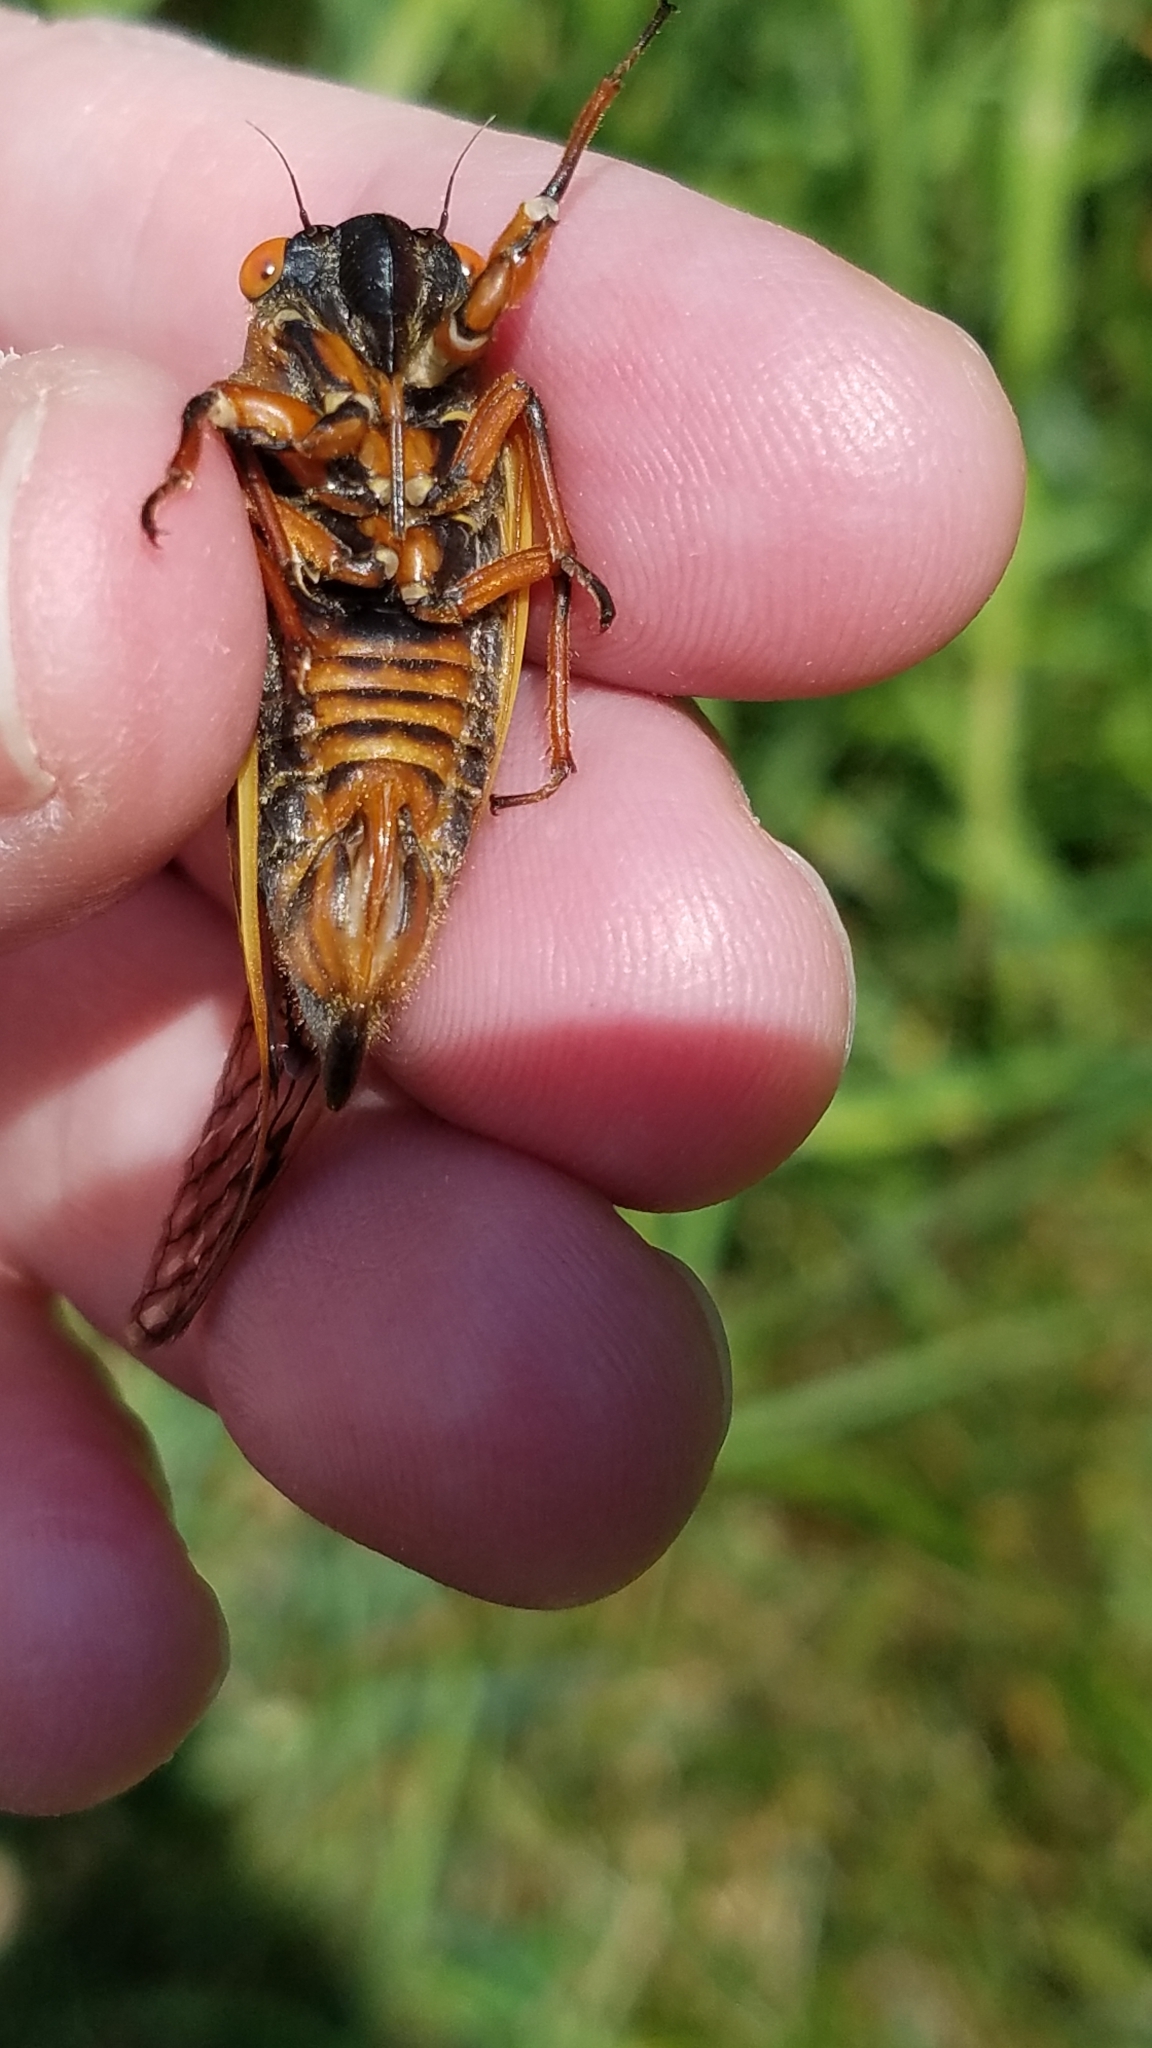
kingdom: Animalia
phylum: Arthropoda
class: Insecta
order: Hemiptera
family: Cicadidae
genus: Magicicada
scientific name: Magicicada septendecim
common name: Periodical cicada
